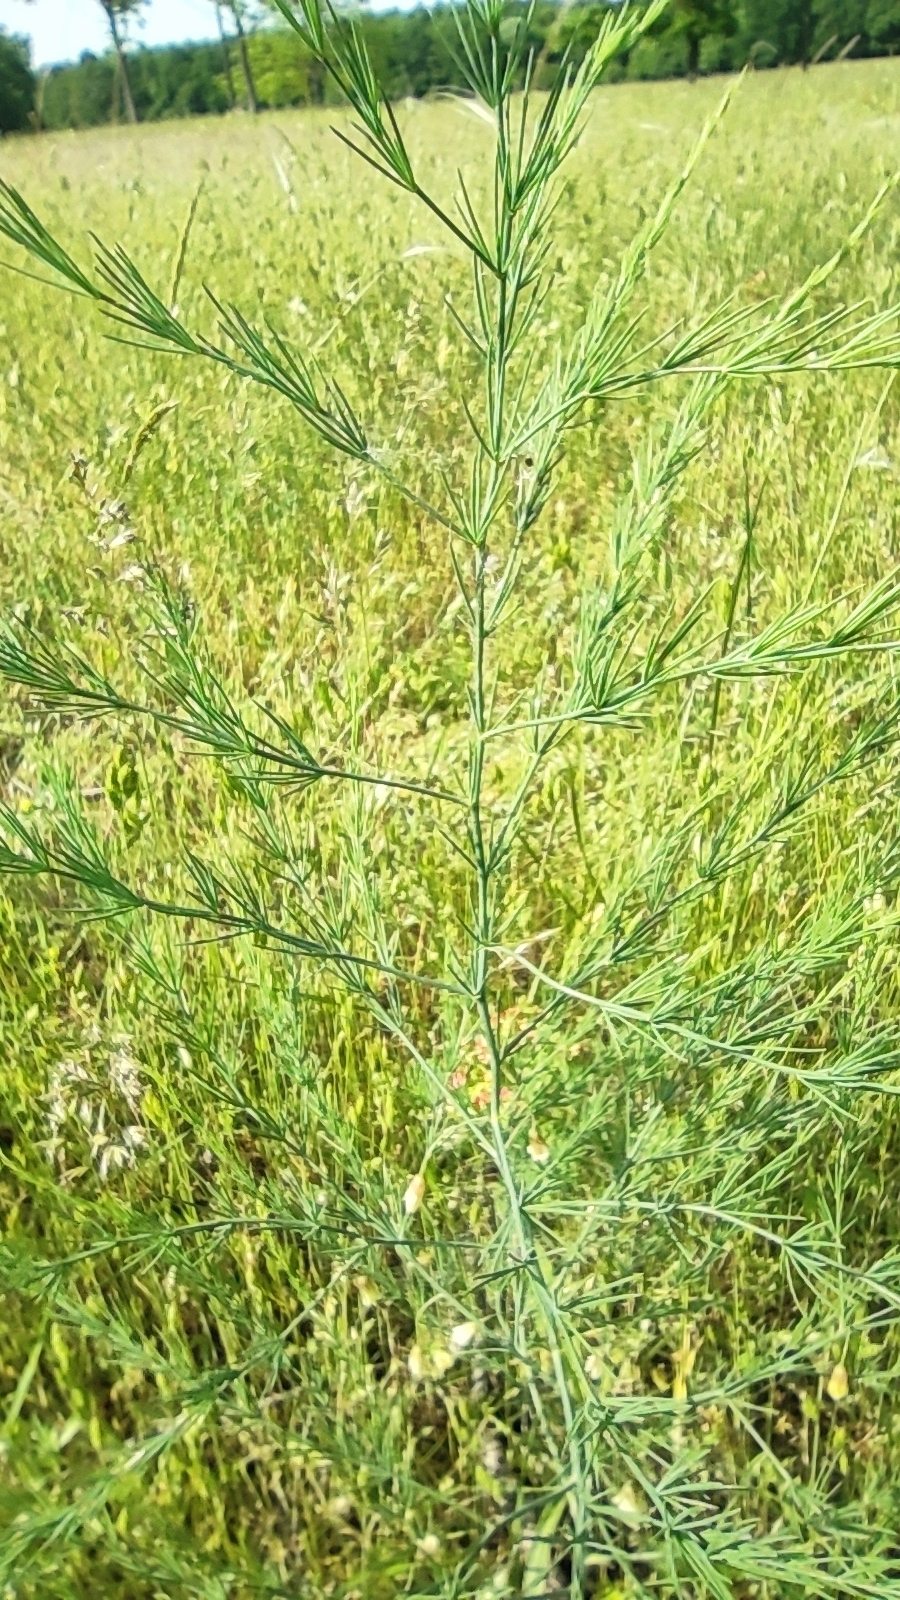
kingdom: Plantae
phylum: Tracheophyta
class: Liliopsida
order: Asparagales
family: Asparagaceae
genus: Asparagus
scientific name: Asparagus officinalis
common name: Garden asparagus
